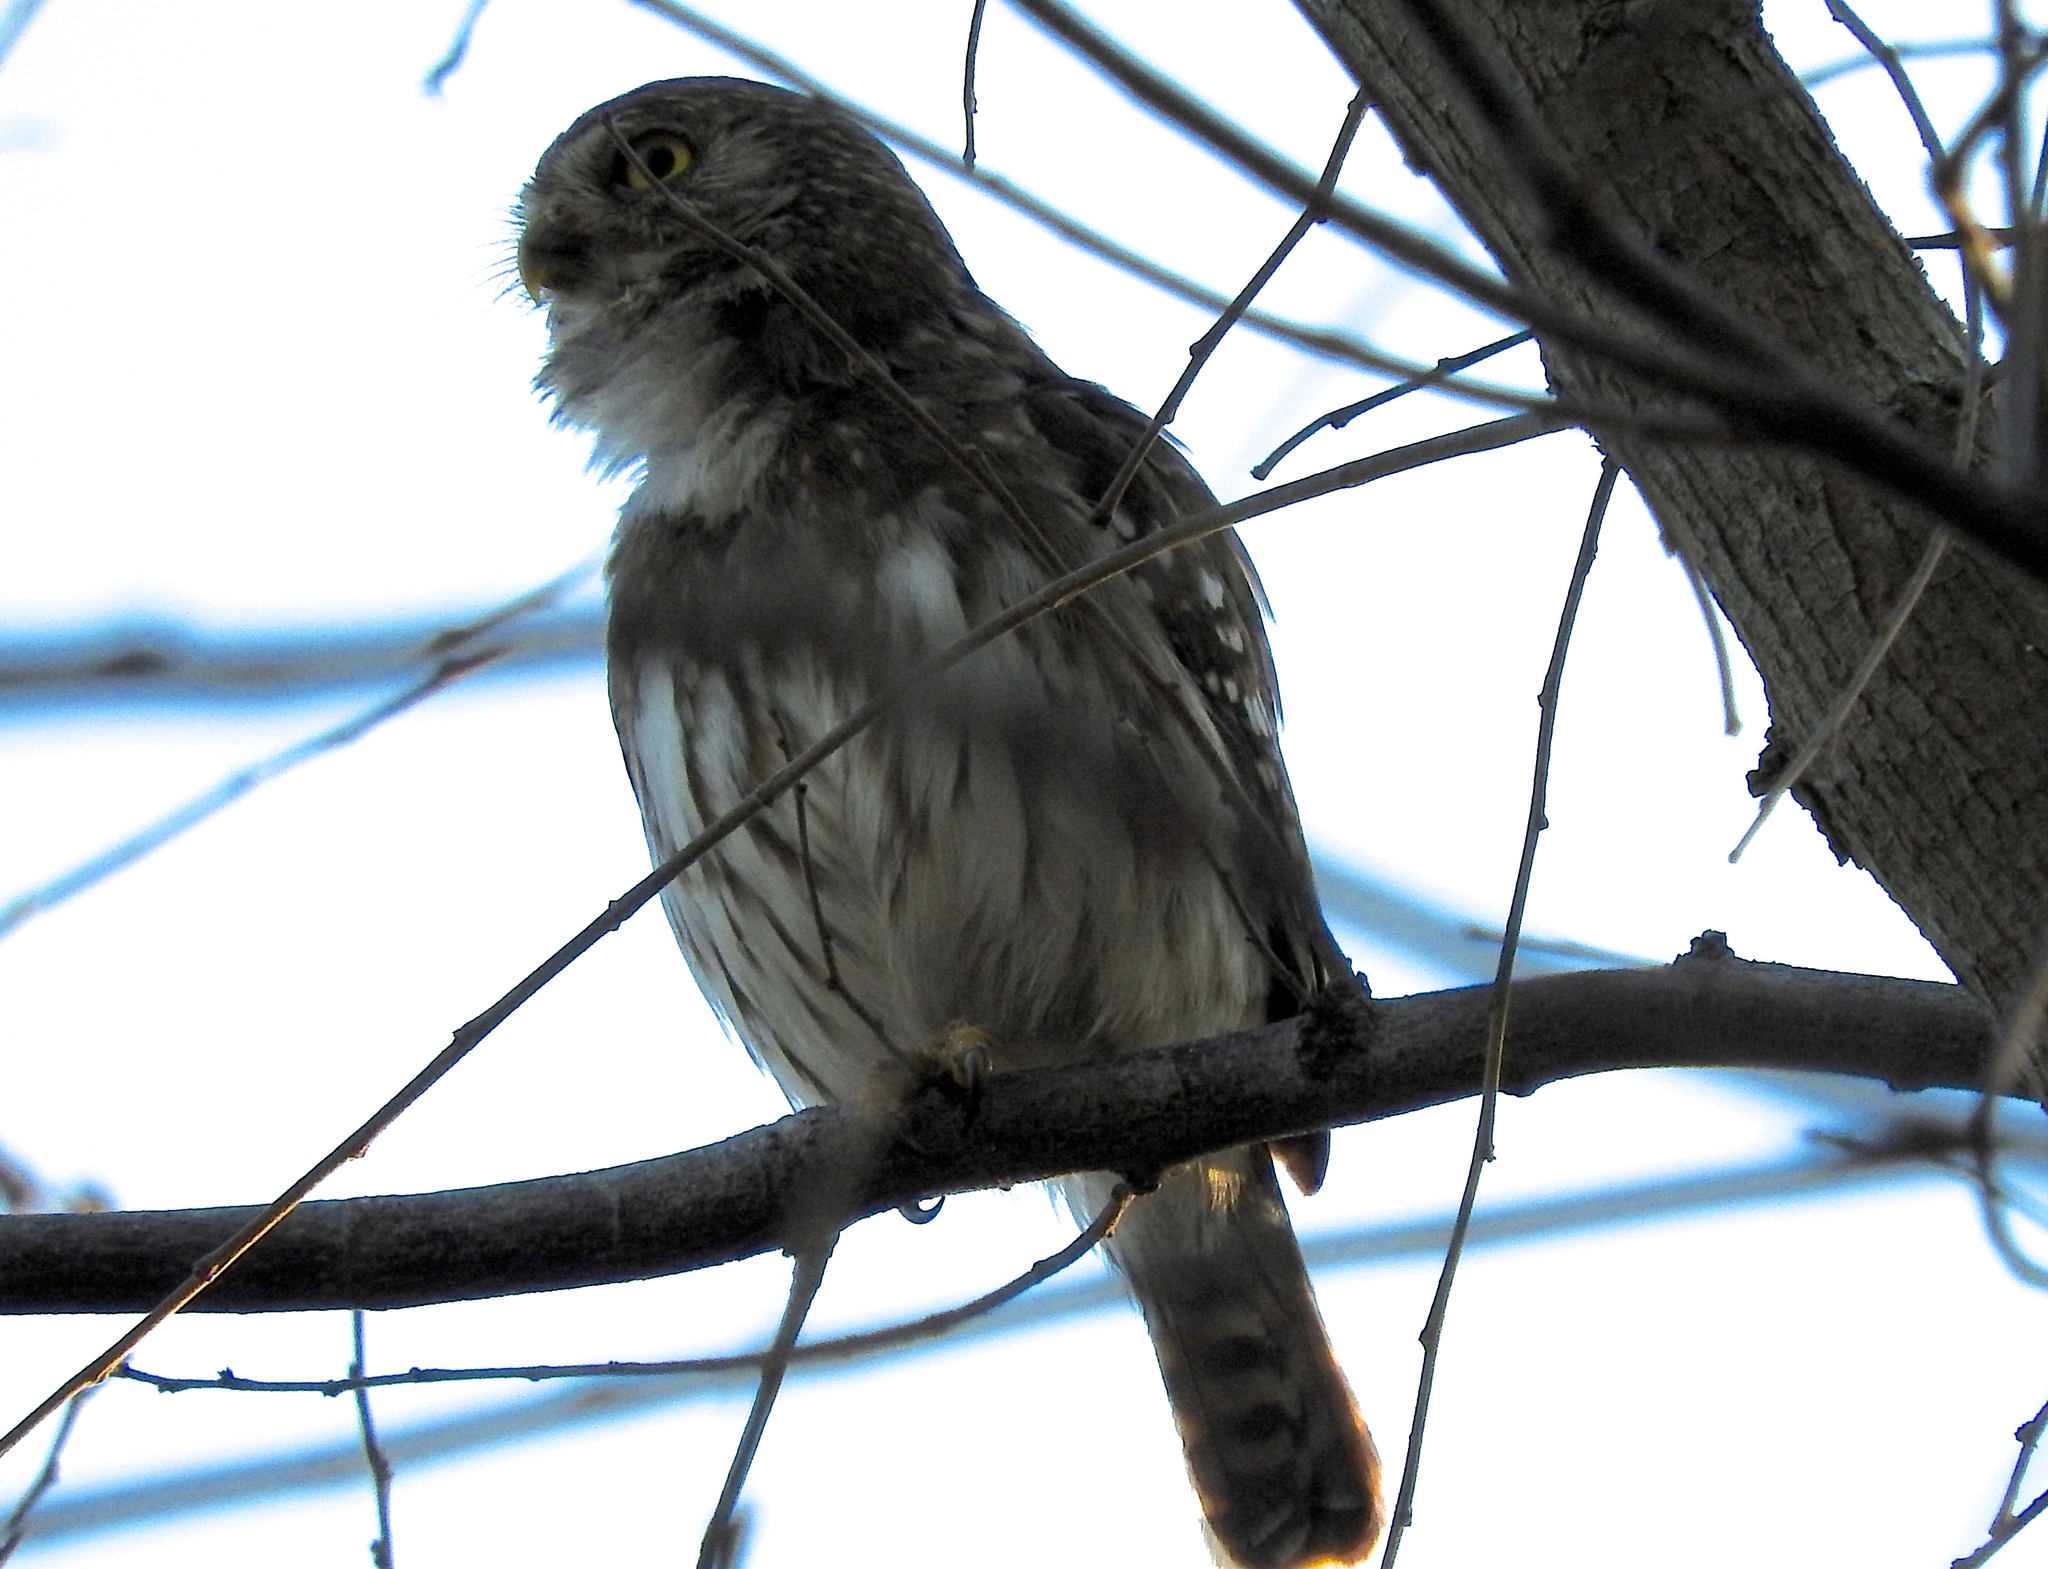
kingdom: Animalia
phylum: Chordata
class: Aves
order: Strigiformes
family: Strigidae
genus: Glaucidium
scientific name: Glaucidium brasilianum
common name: Ferruginous pygmy-owl
